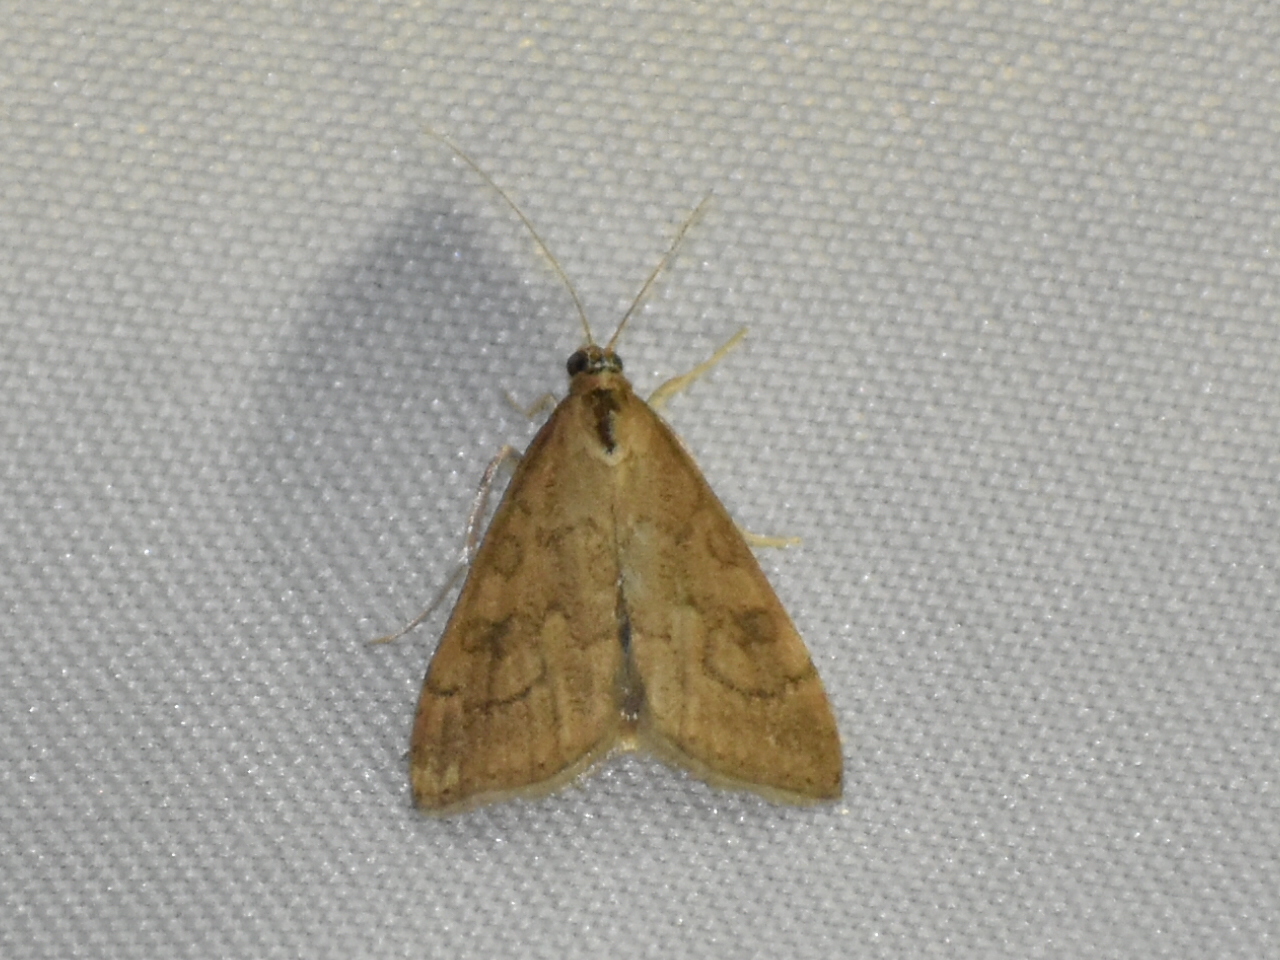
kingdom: Animalia
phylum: Arthropoda
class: Insecta
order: Lepidoptera
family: Crambidae
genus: Udea
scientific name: Udea rubigalis
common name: Celery leaftier moth
